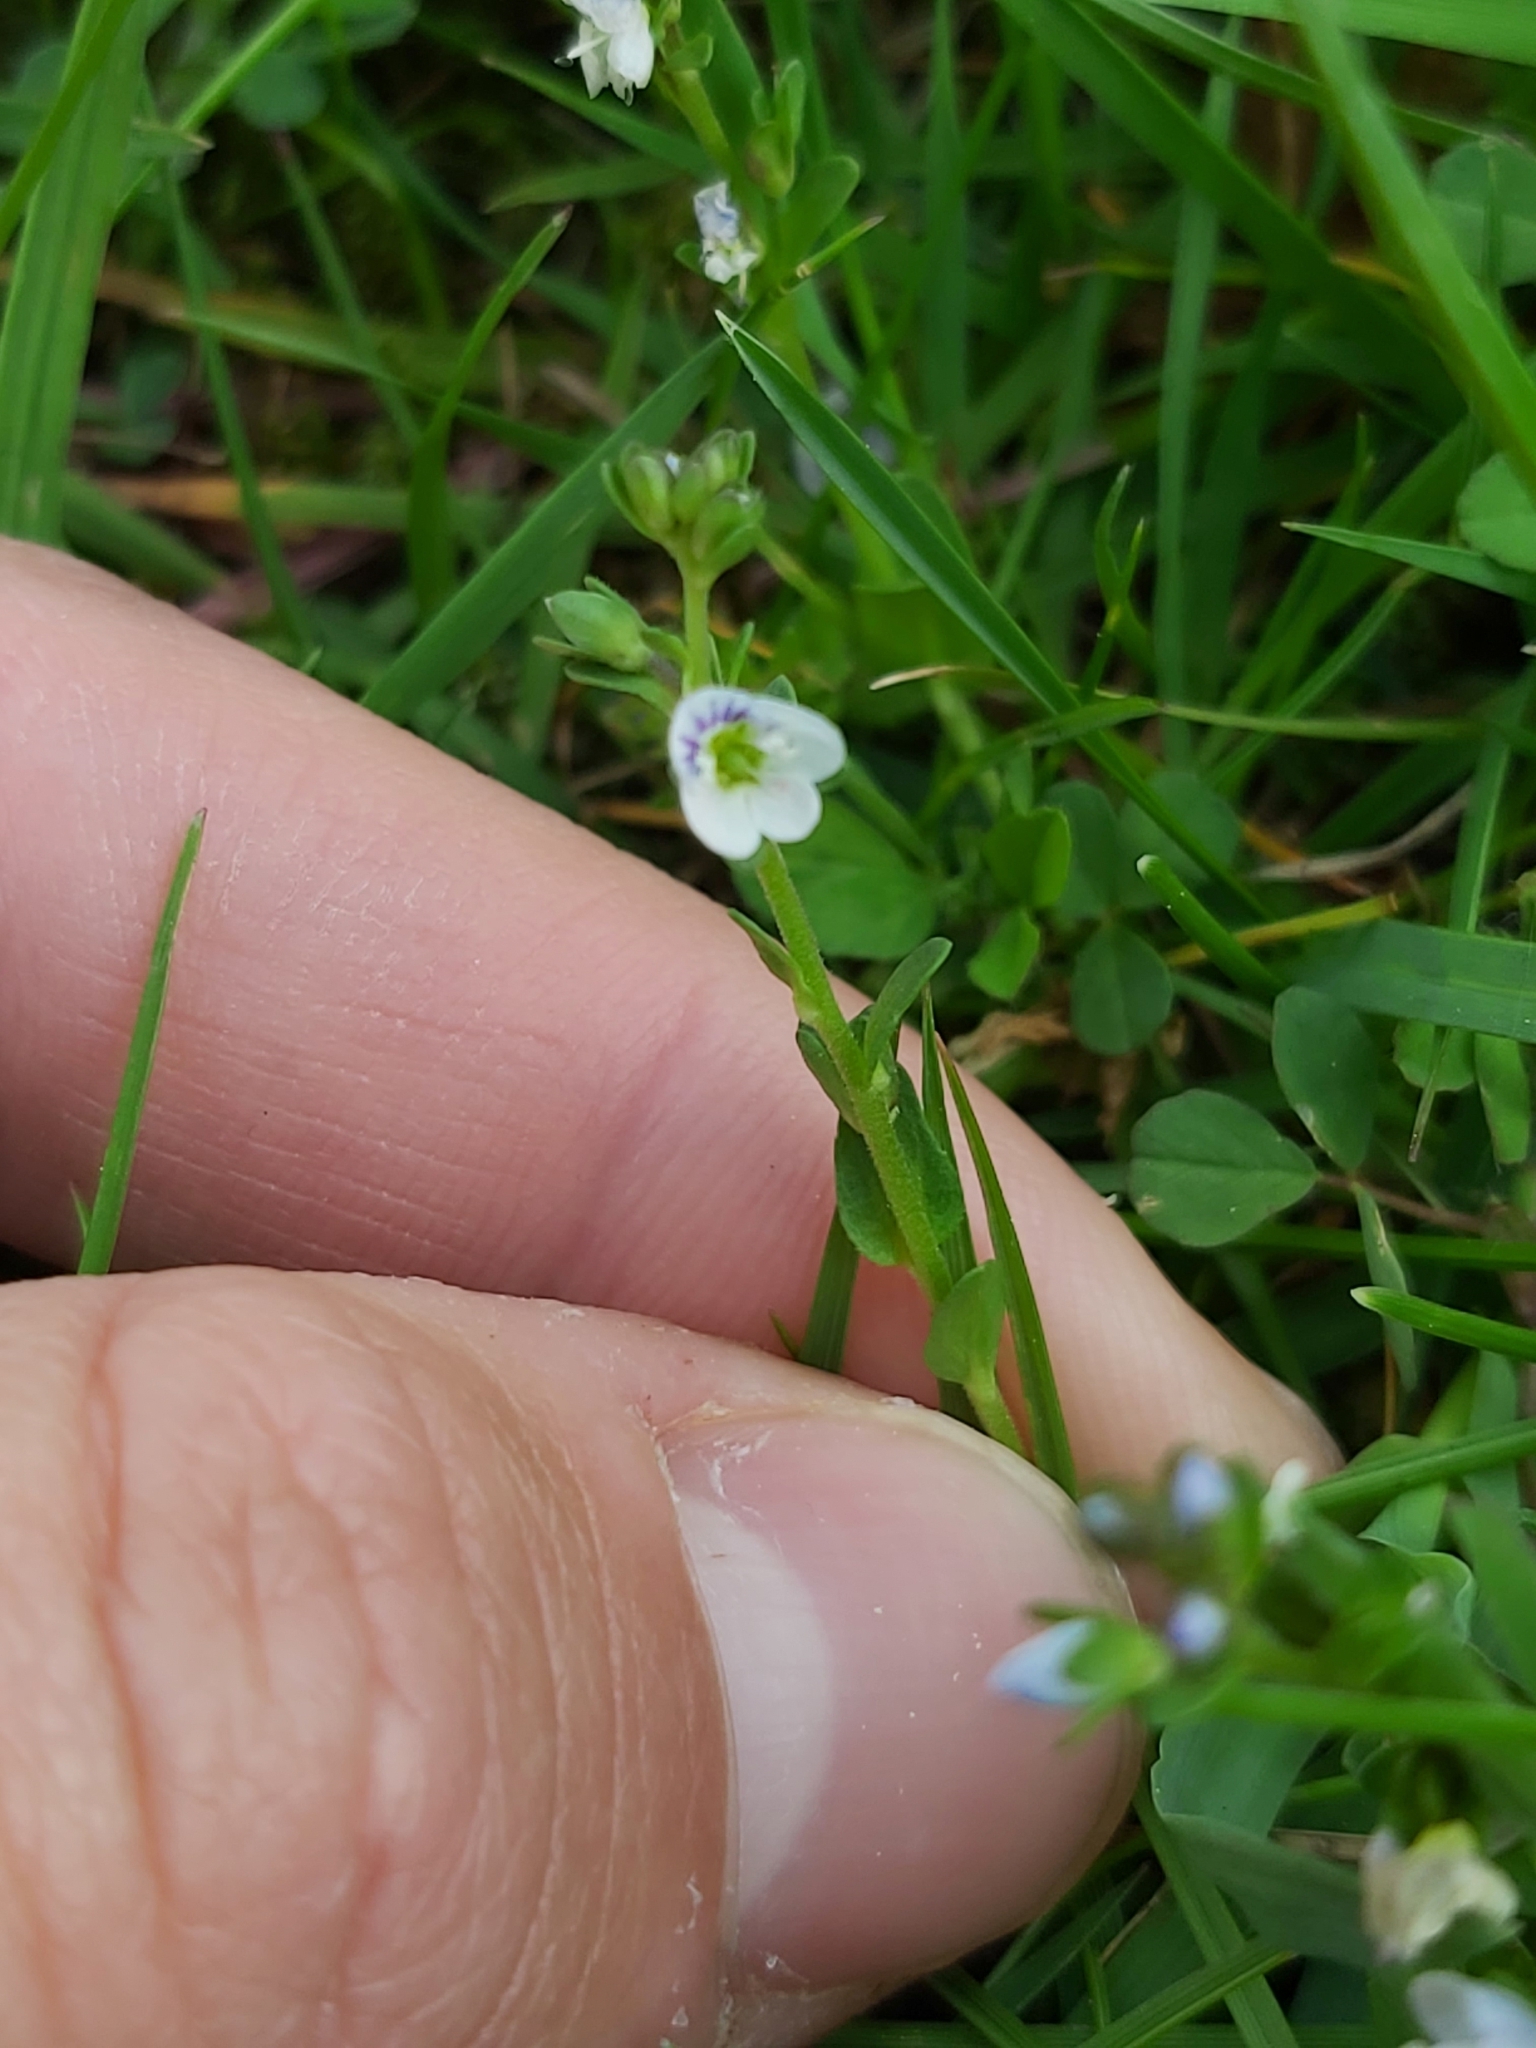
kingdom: Plantae
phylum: Tracheophyta
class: Magnoliopsida
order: Lamiales
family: Plantaginaceae
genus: Veronica
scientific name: Veronica serpyllifolia
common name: Thyme-leaved speedwell
